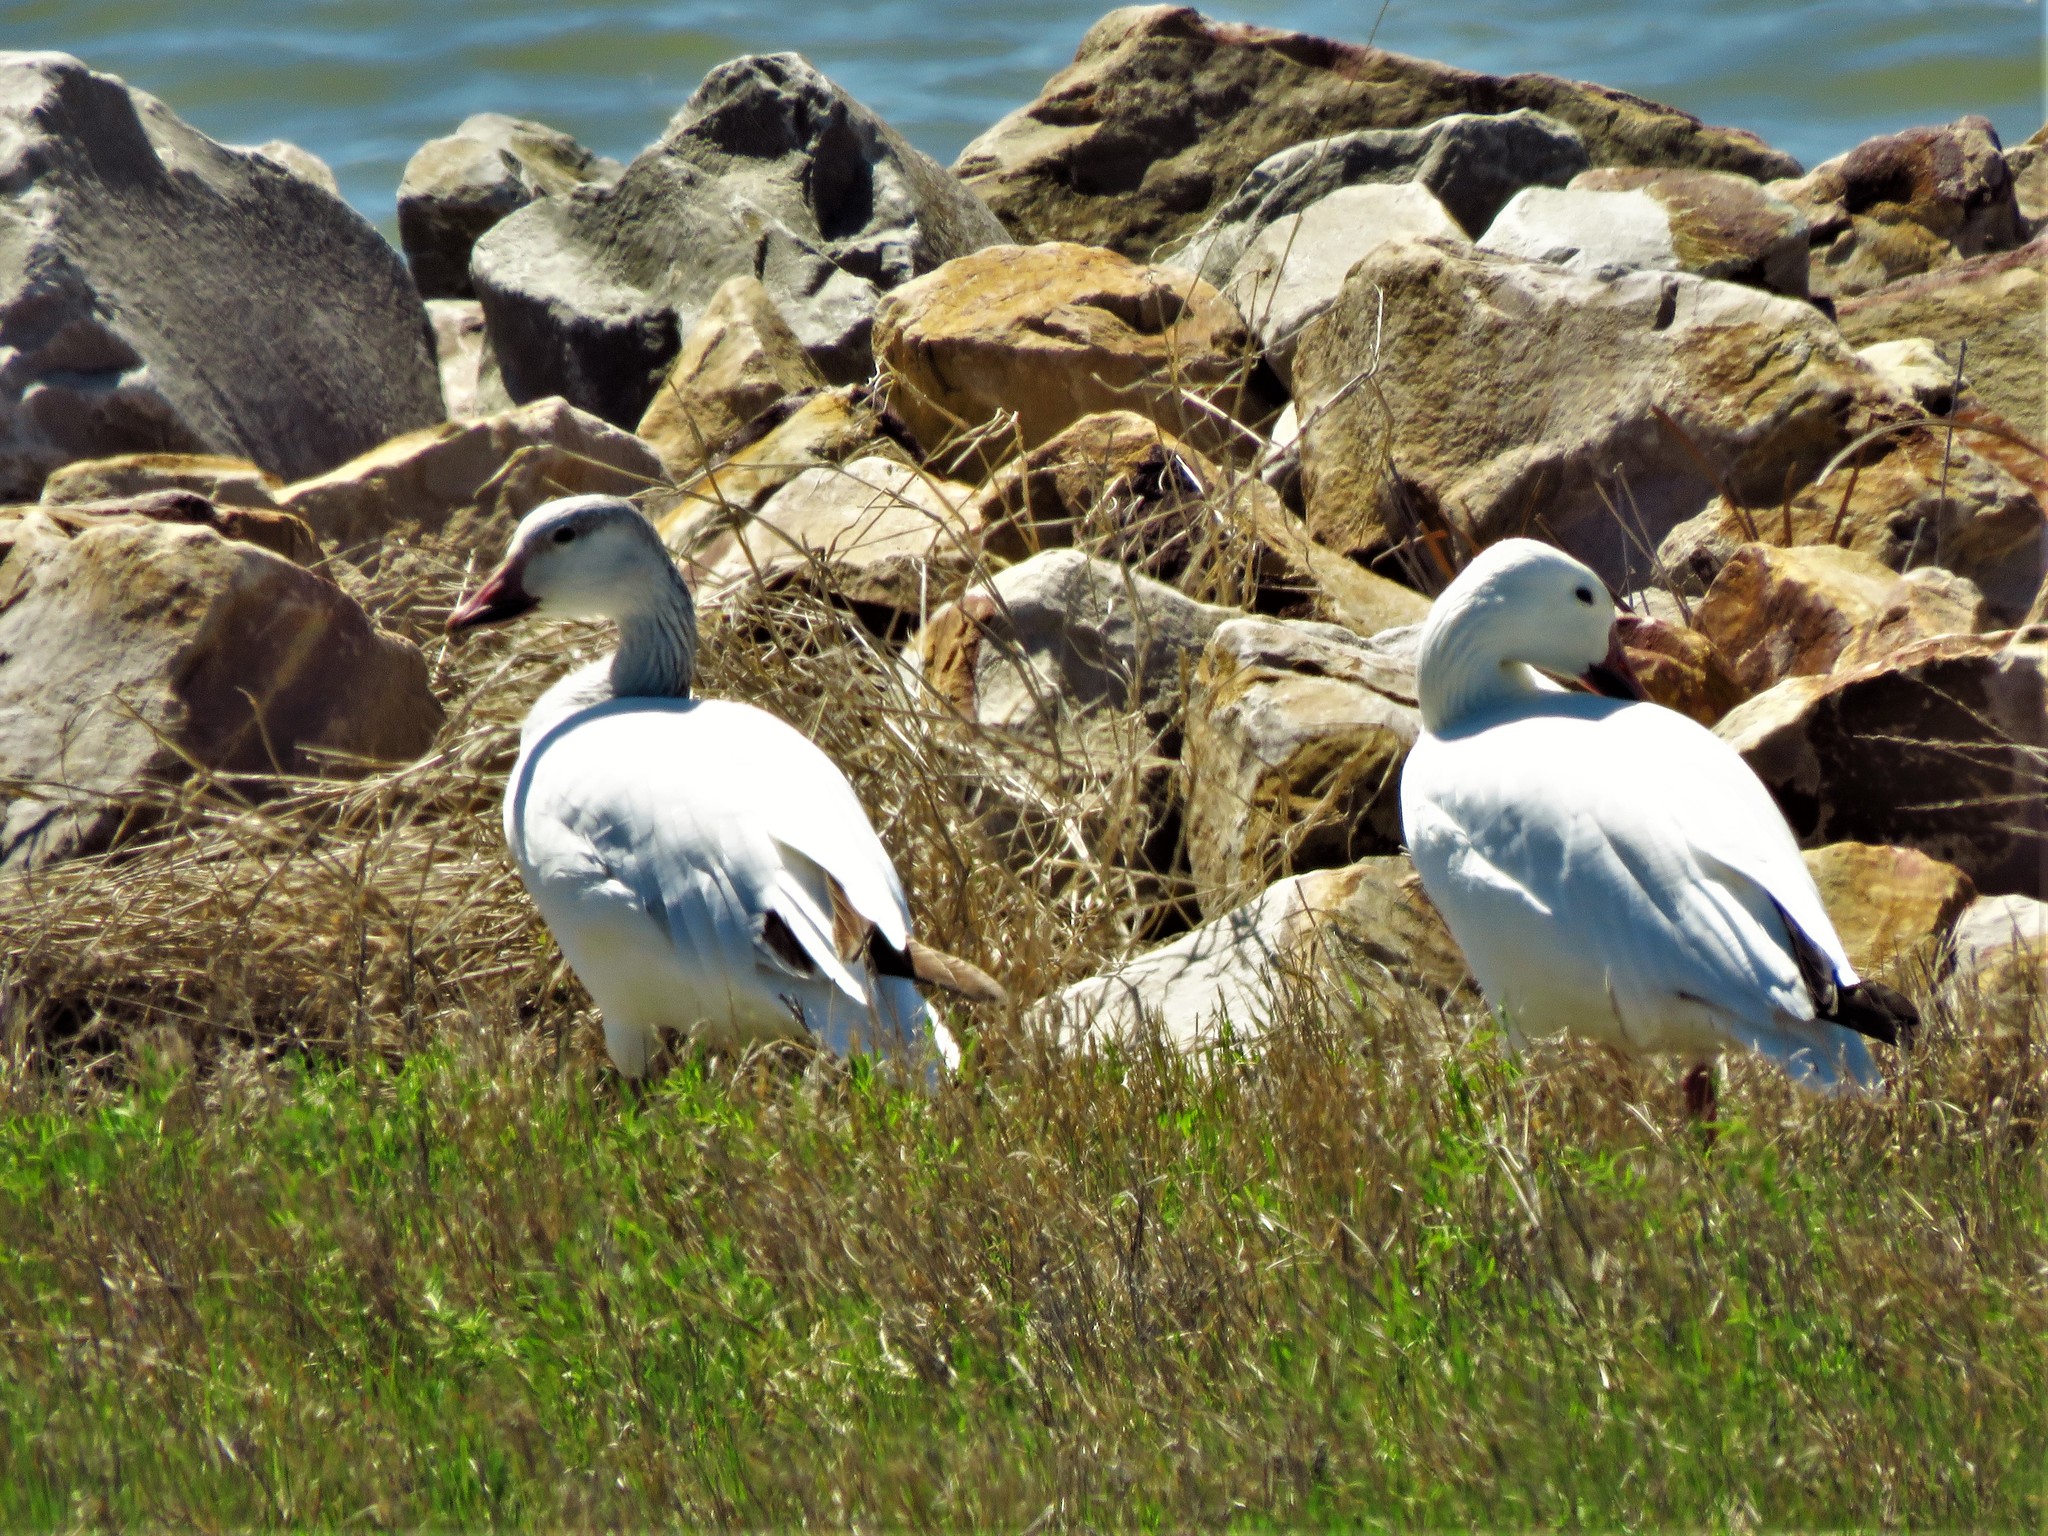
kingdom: Animalia
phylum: Chordata
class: Aves
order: Anseriformes
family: Anatidae
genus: Anser
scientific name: Anser caerulescens
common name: Snow goose
